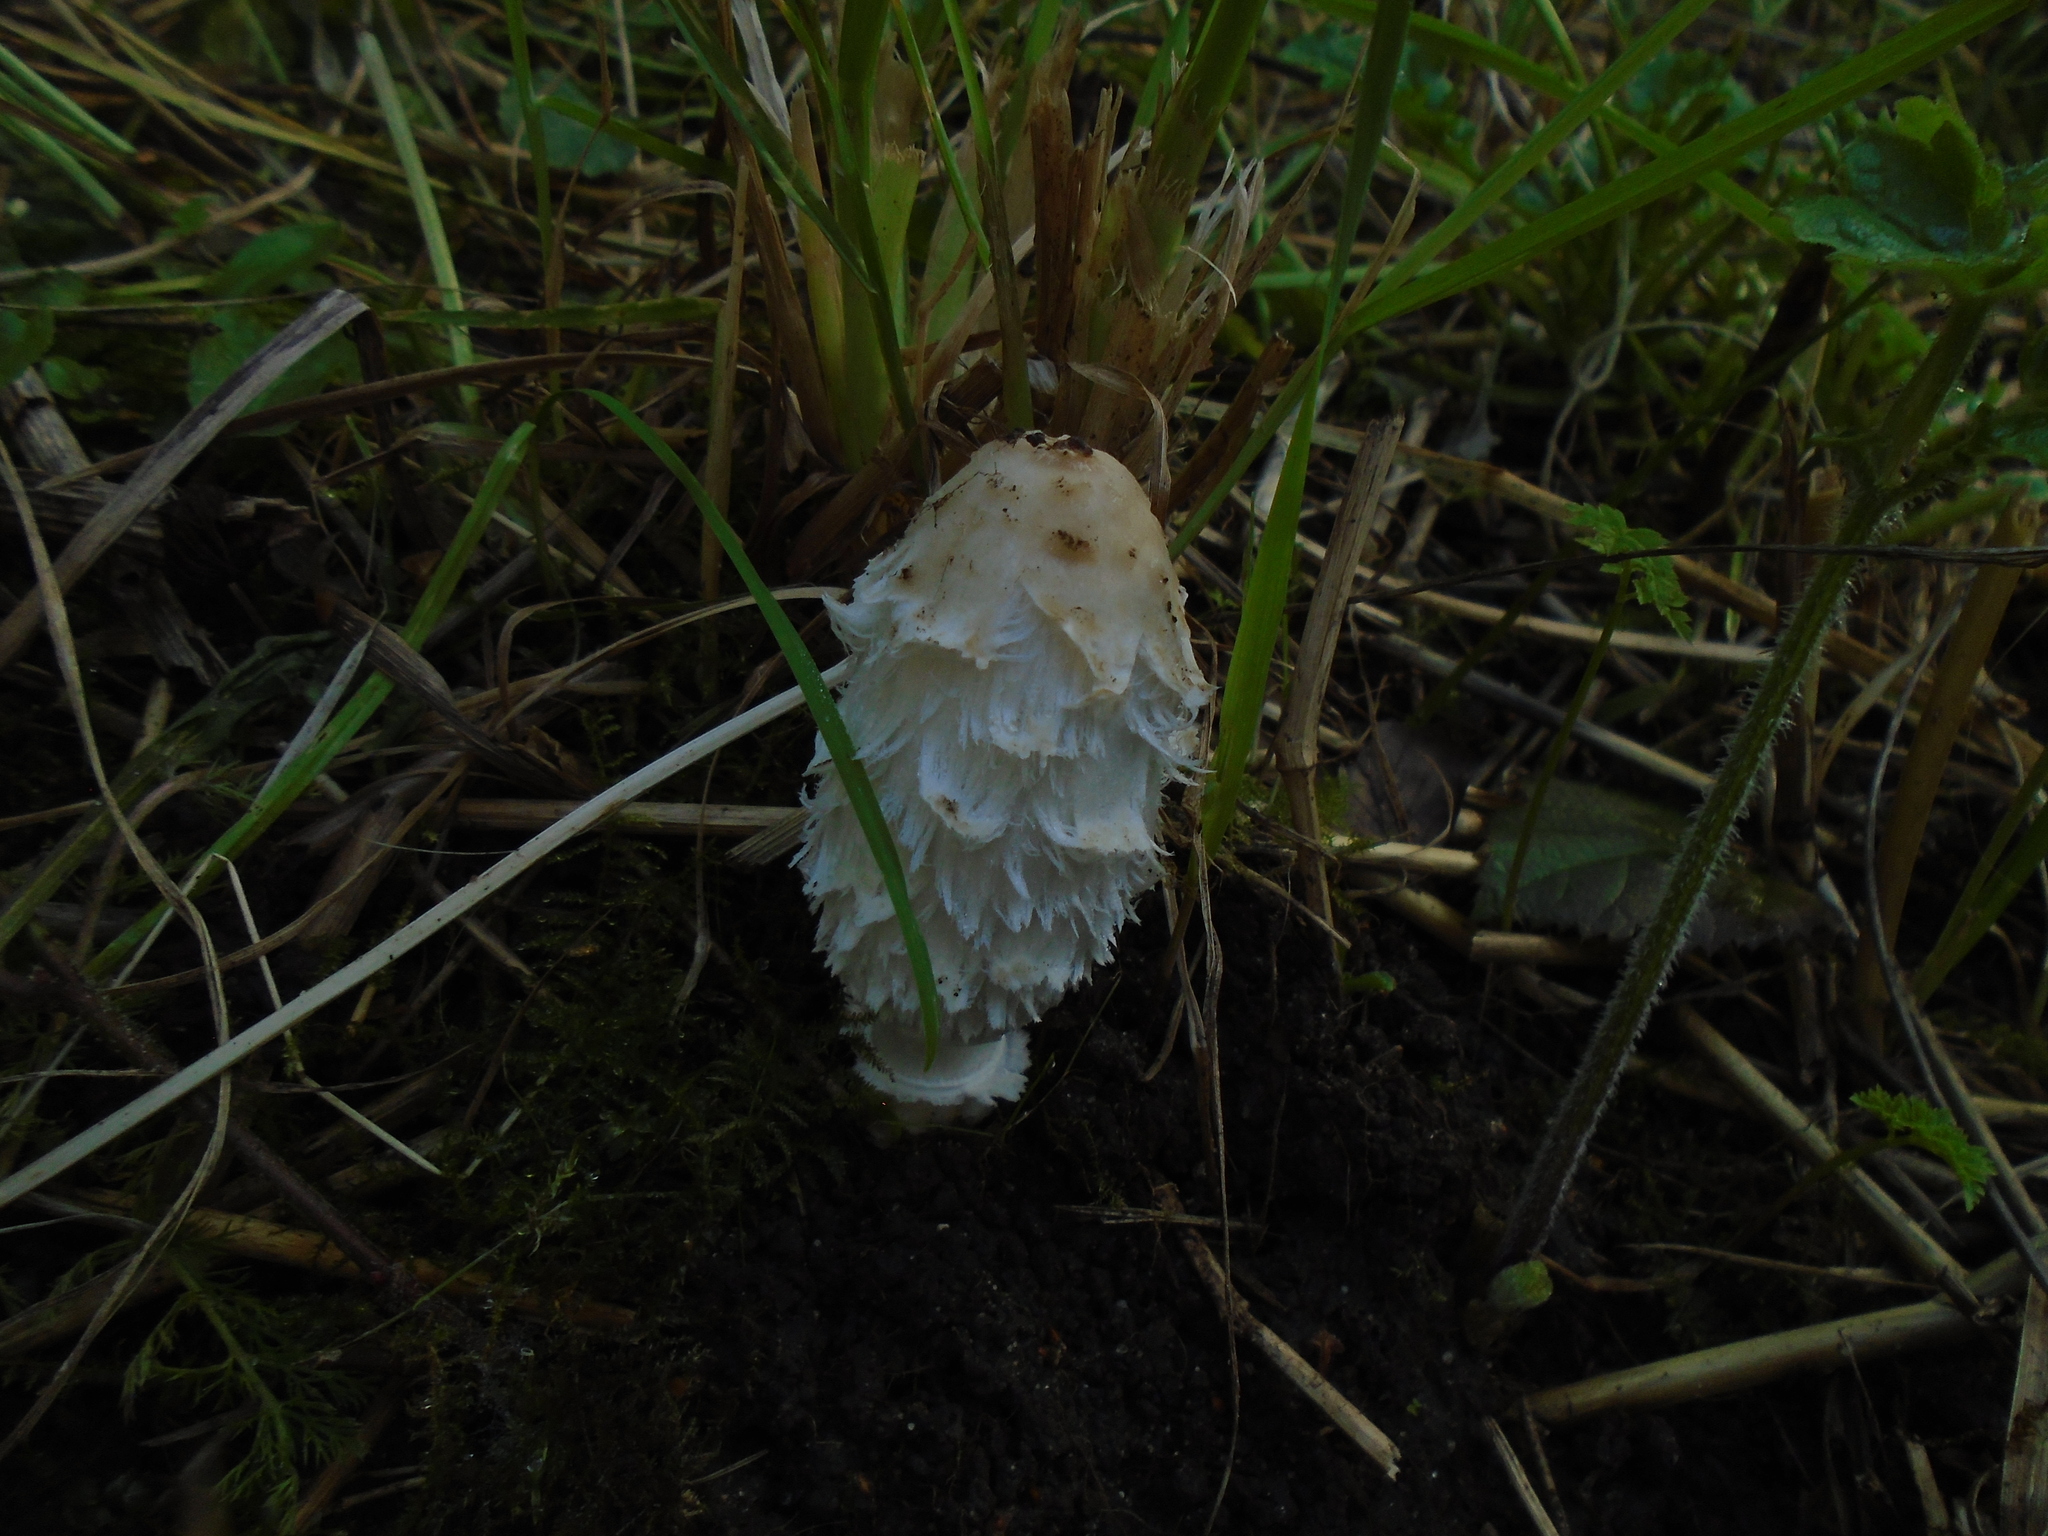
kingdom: Fungi
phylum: Basidiomycota
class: Agaricomycetes
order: Agaricales
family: Agaricaceae
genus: Coprinus
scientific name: Coprinus comatus
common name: Lawyer's wig
